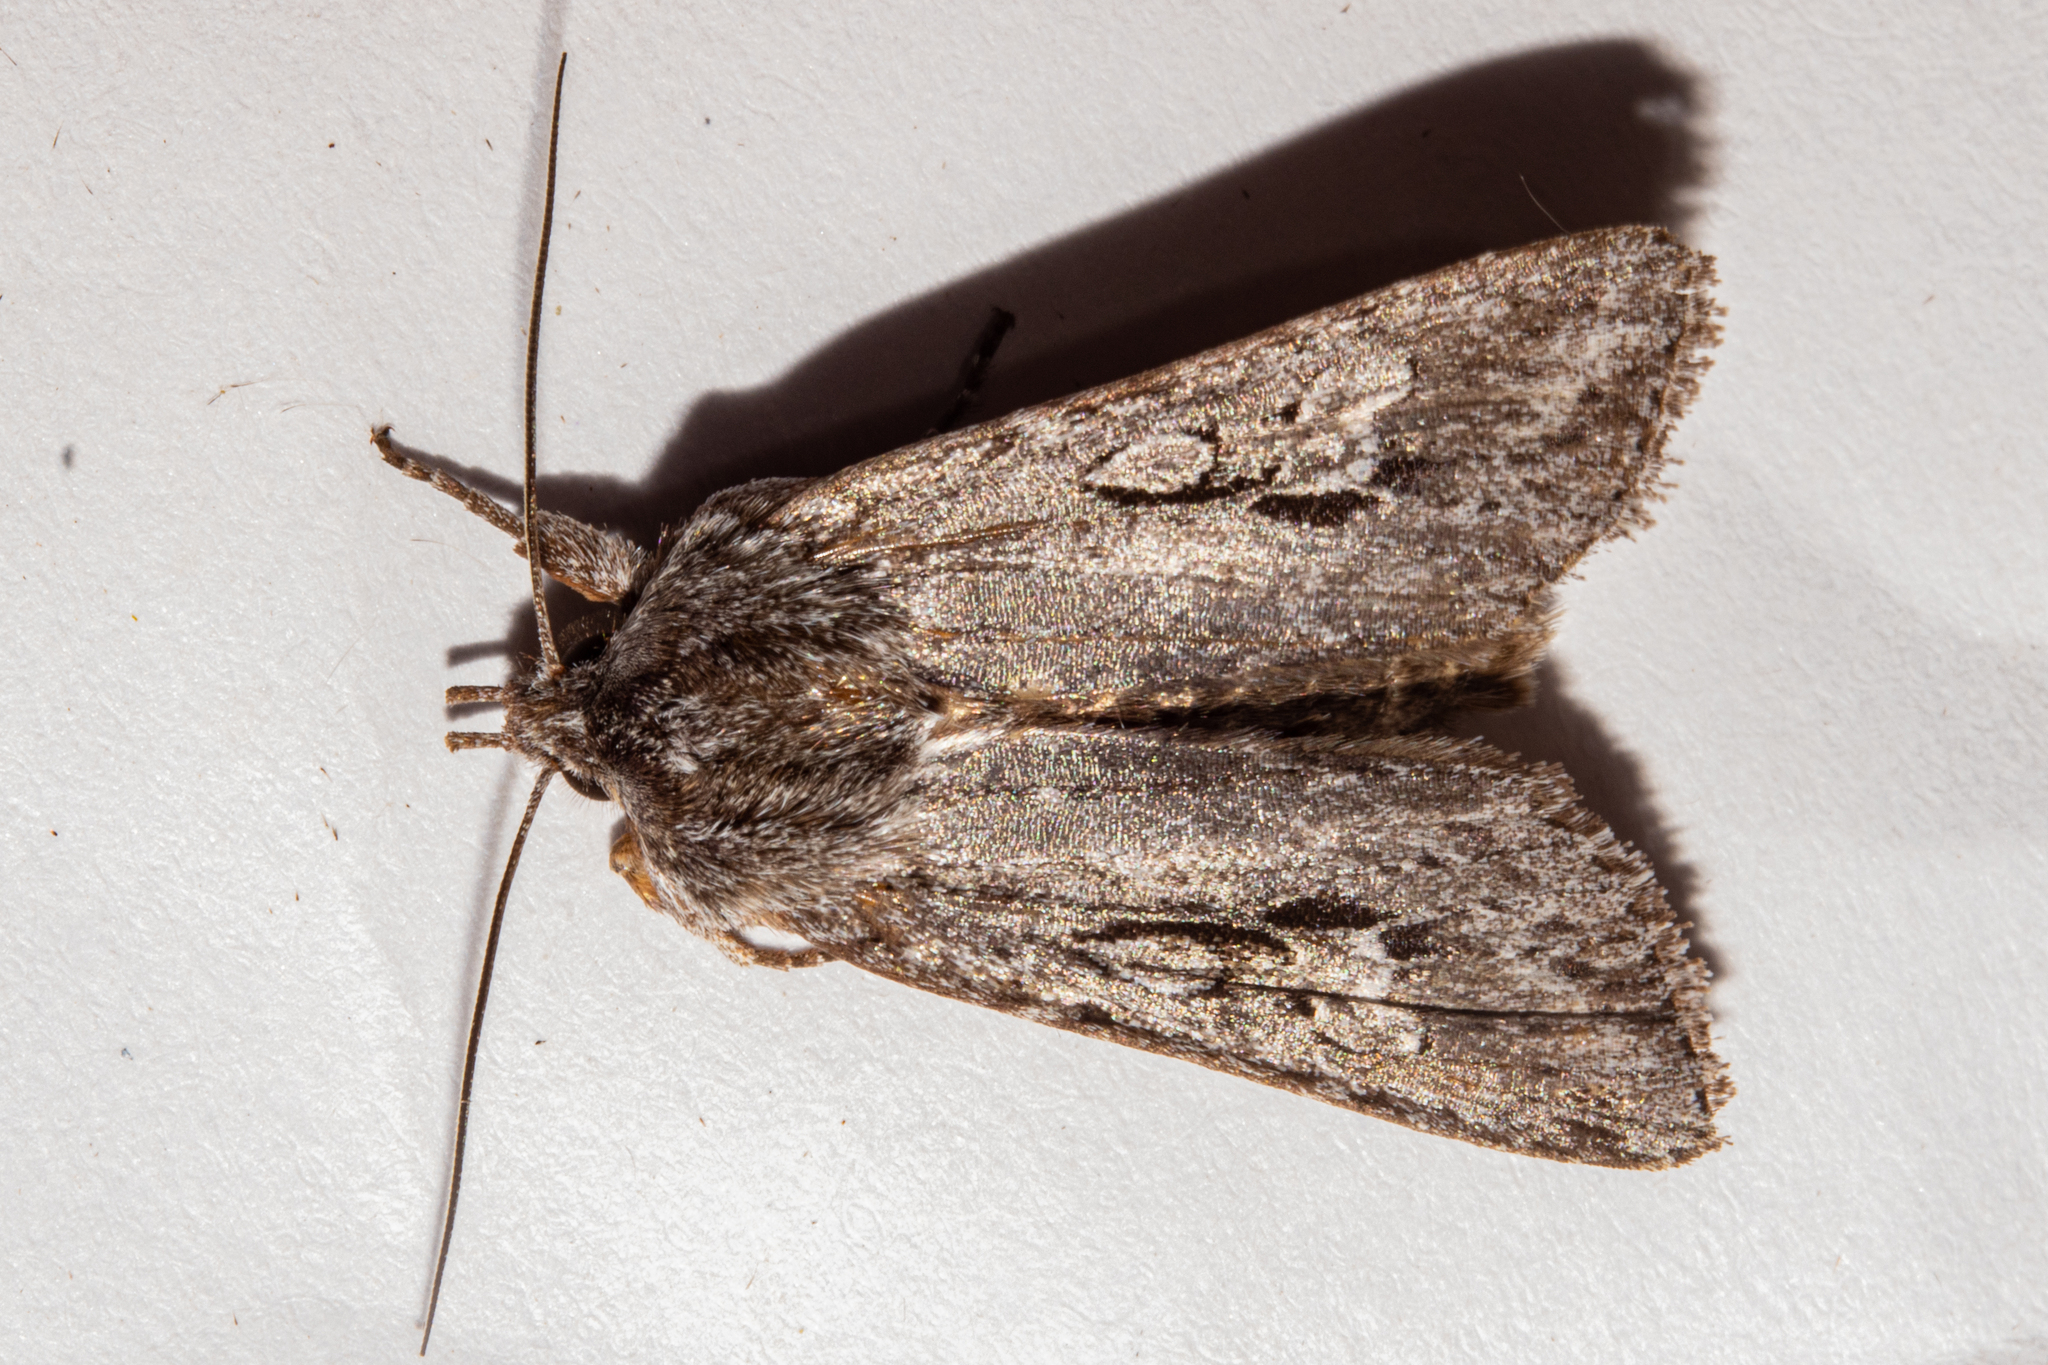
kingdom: Animalia
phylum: Arthropoda
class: Insecta
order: Lepidoptera
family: Noctuidae
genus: Physetica
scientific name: Physetica sequens
